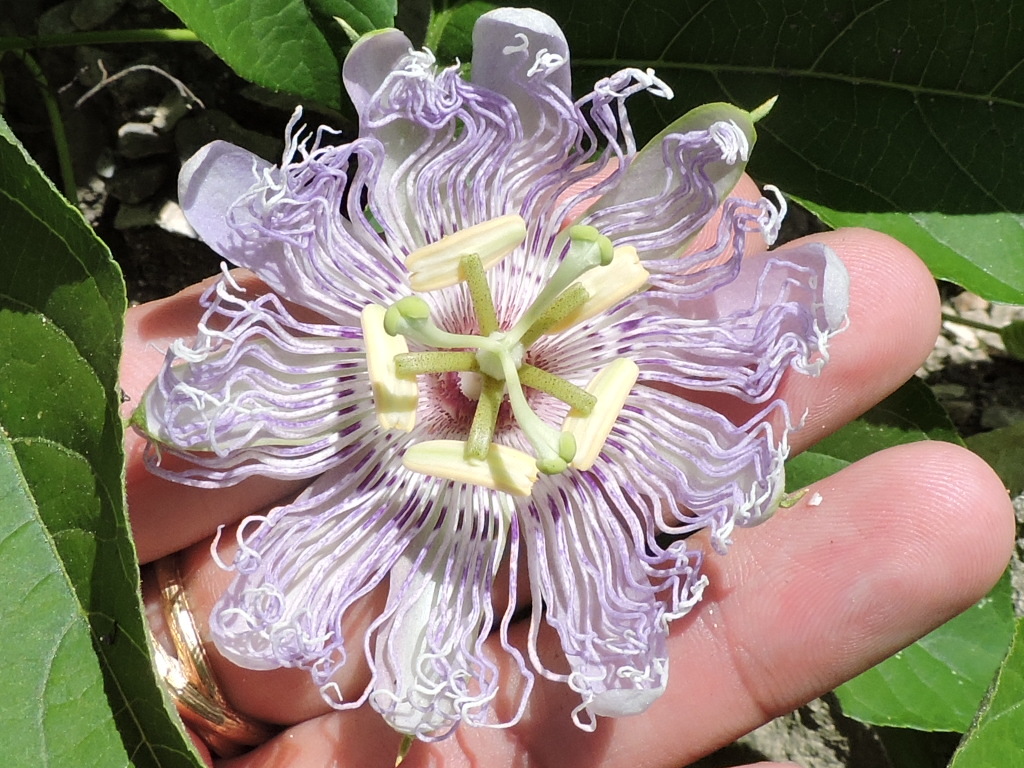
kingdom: Plantae
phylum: Tracheophyta
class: Magnoliopsida
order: Malpighiales
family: Passifloraceae
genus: Passiflora
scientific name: Passiflora incarnata
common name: Apricot-vine
